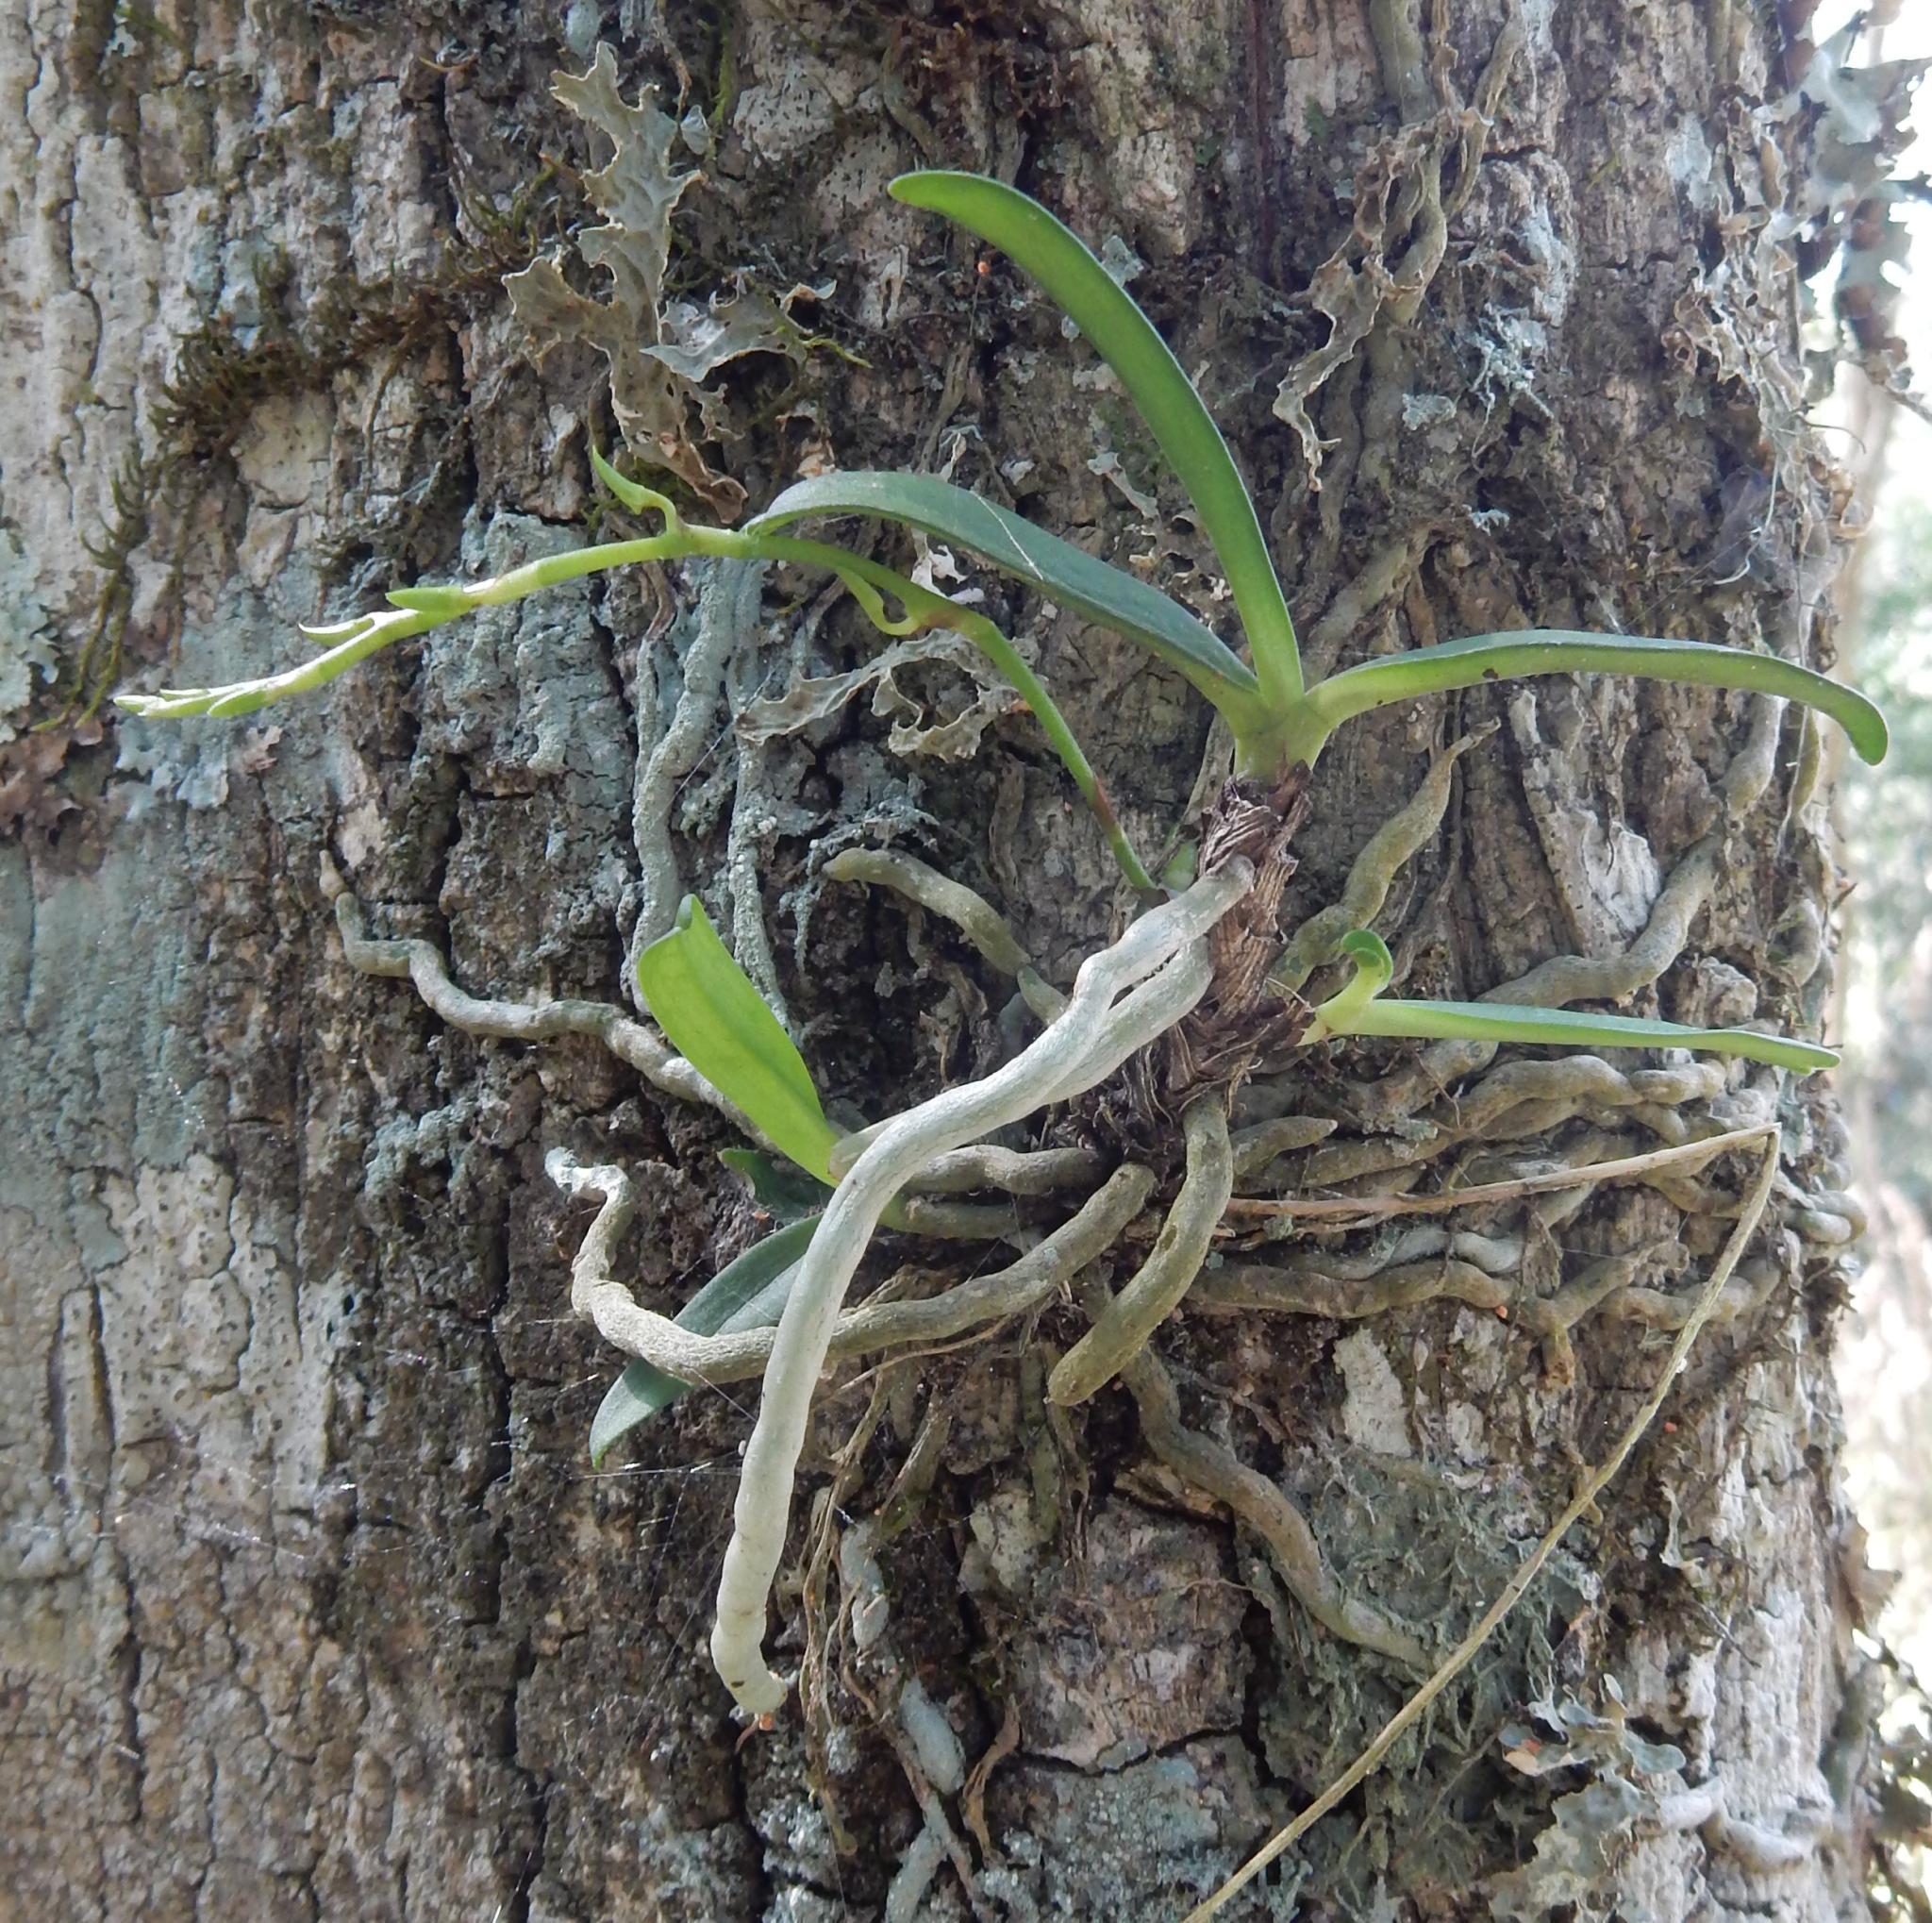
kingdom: Plantae
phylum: Tracheophyta
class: Liliopsida
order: Asparagales
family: Orchidaceae
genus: Mystacidium
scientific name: Mystacidium capense
